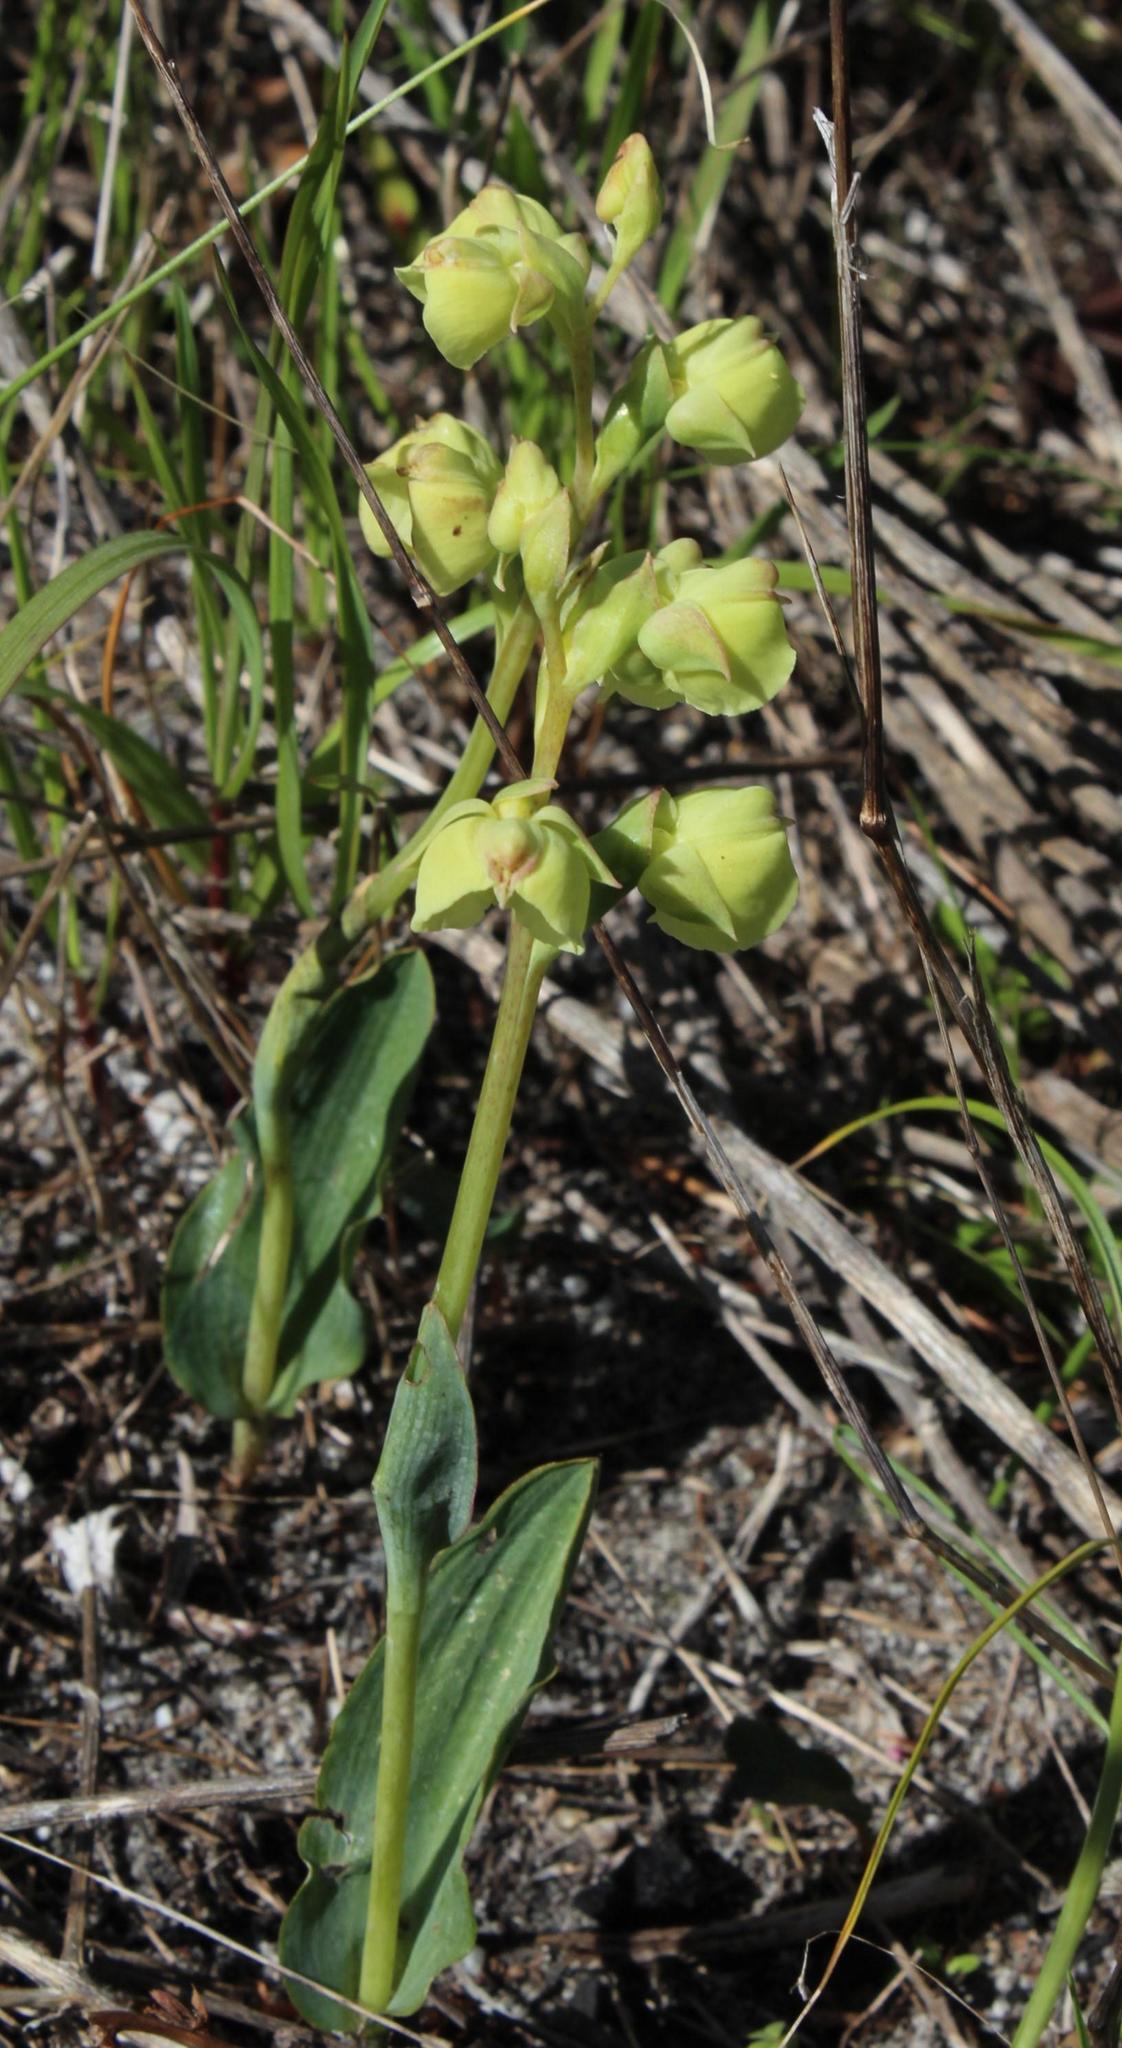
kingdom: Plantae
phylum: Tracheophyta
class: Liliopsida
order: Asparagales
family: Orchidaceae
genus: Pterygodium
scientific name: Pterygodium catholicum
